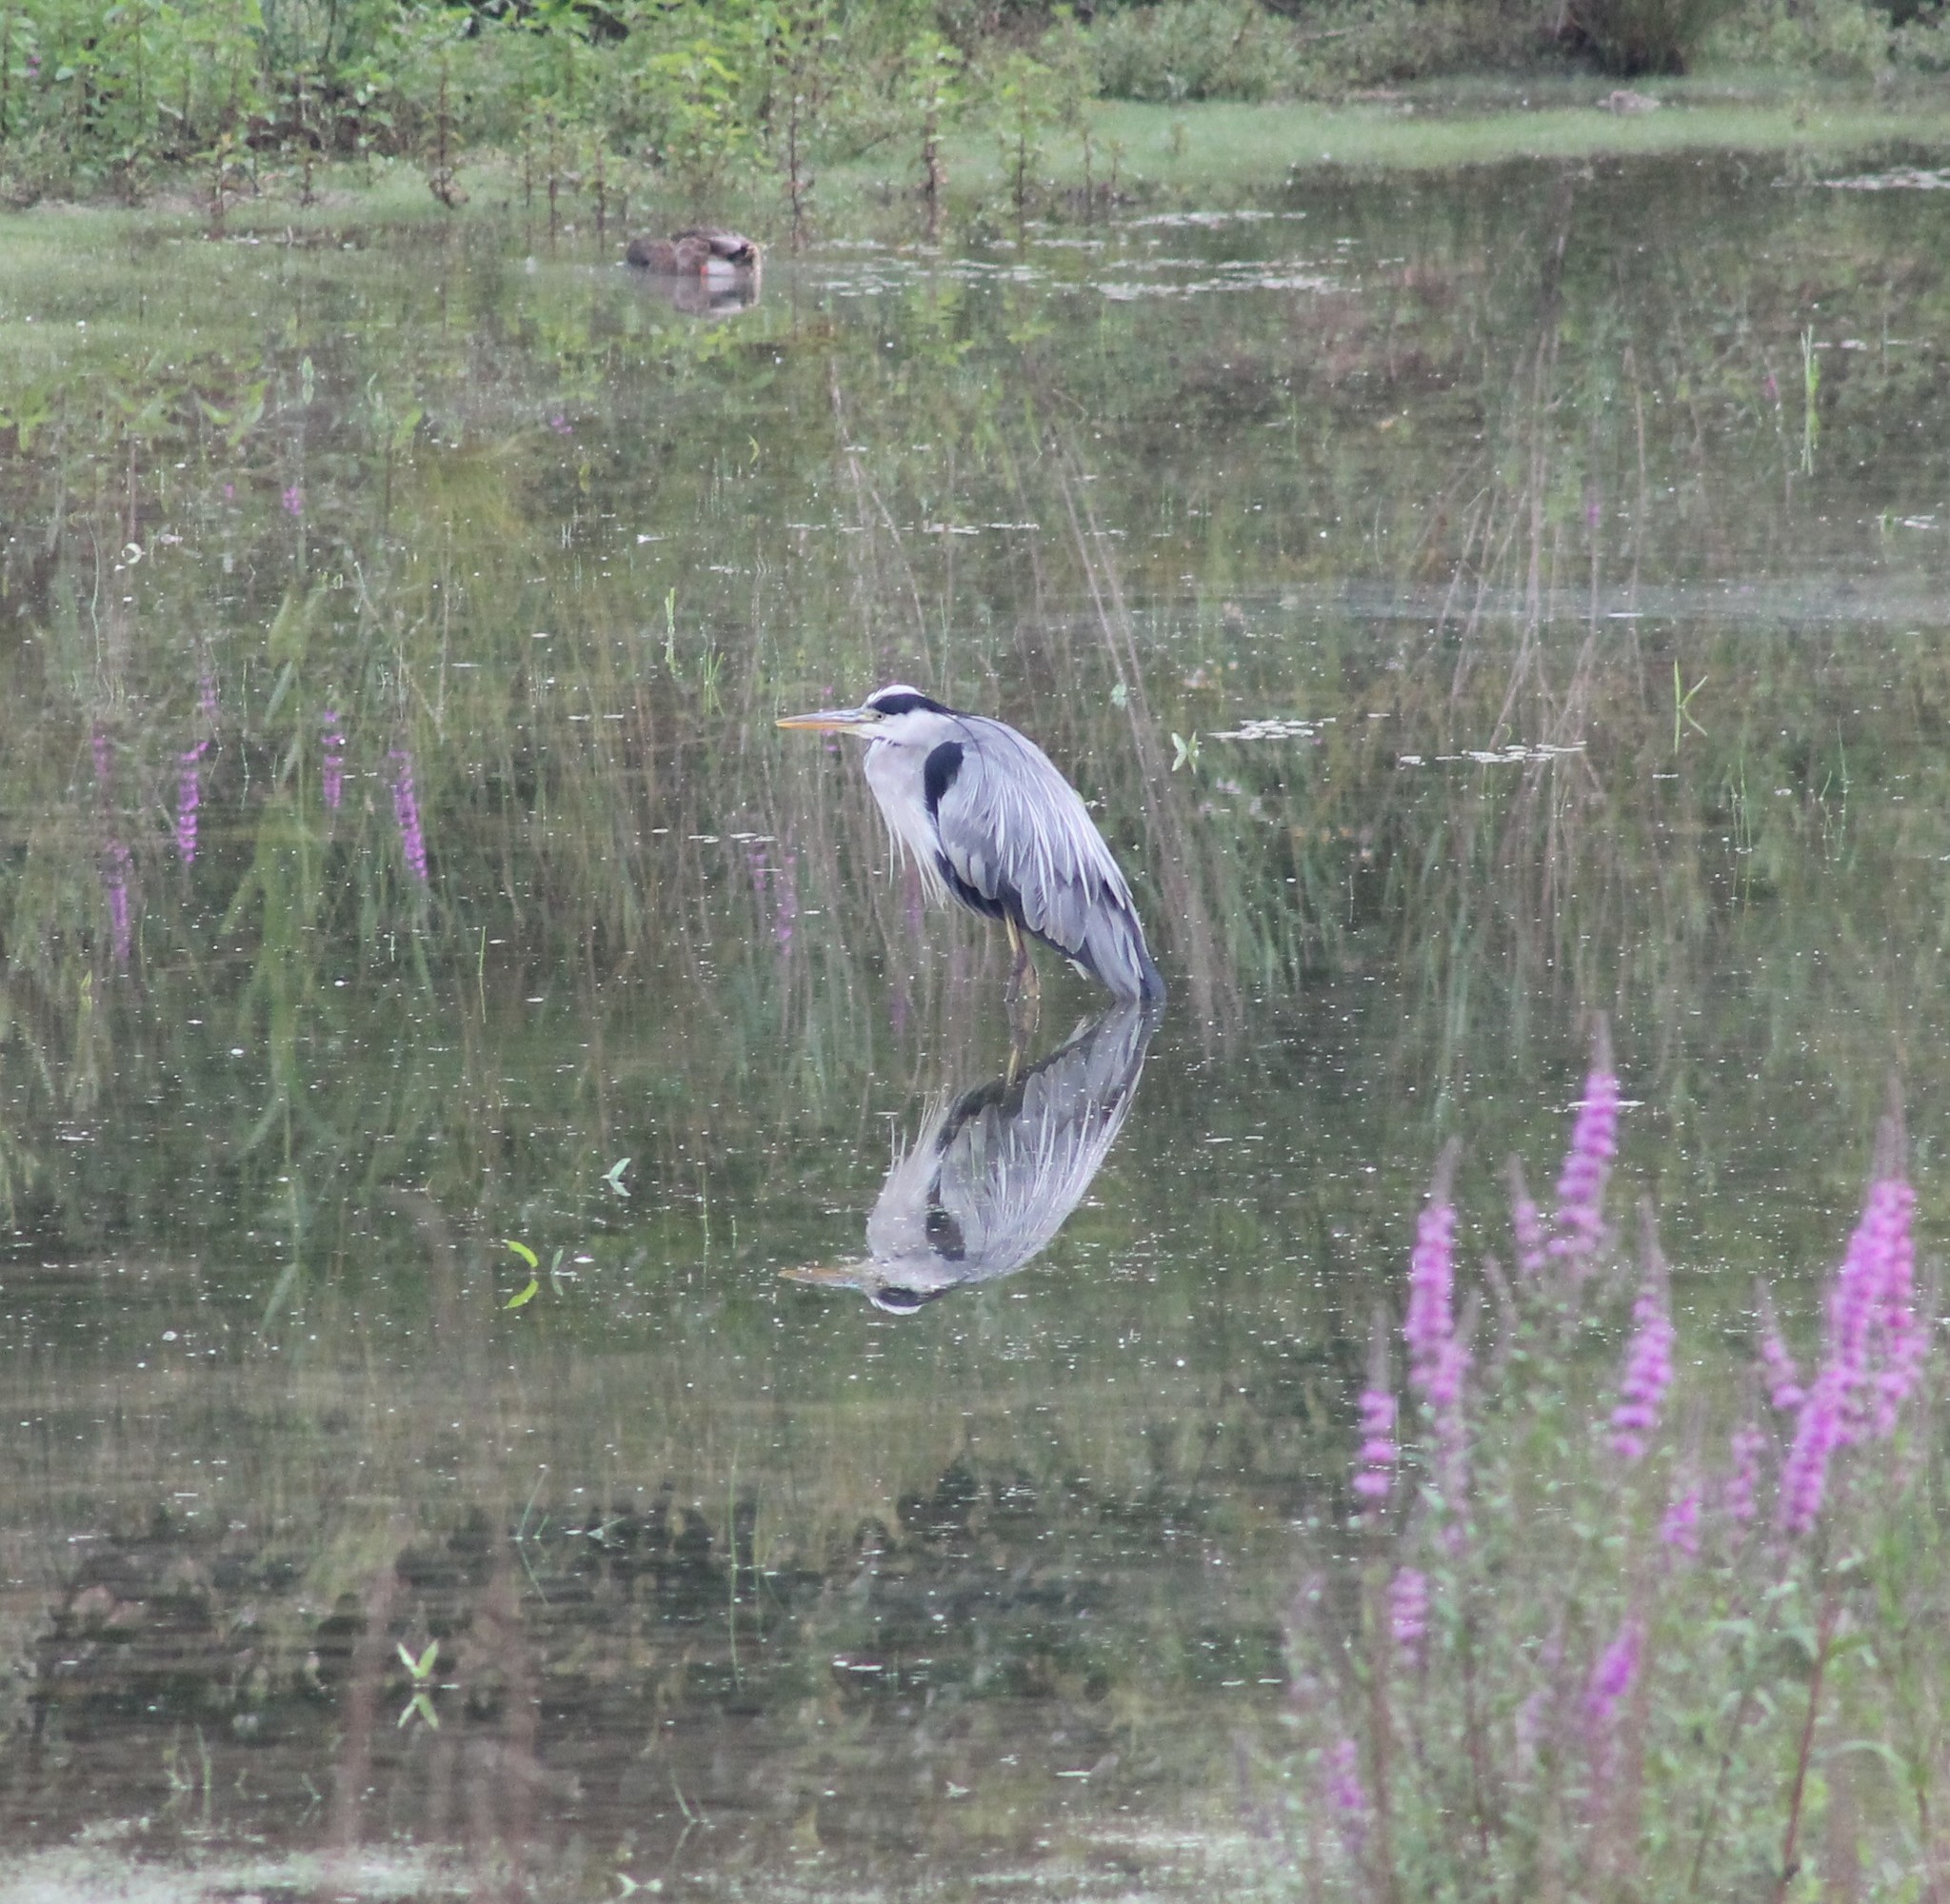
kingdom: Animalia
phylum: Chordata
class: Aves
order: Pelecaniformes
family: Ardeidae
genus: Ardea
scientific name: Ardea cinerea
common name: Grey heron
